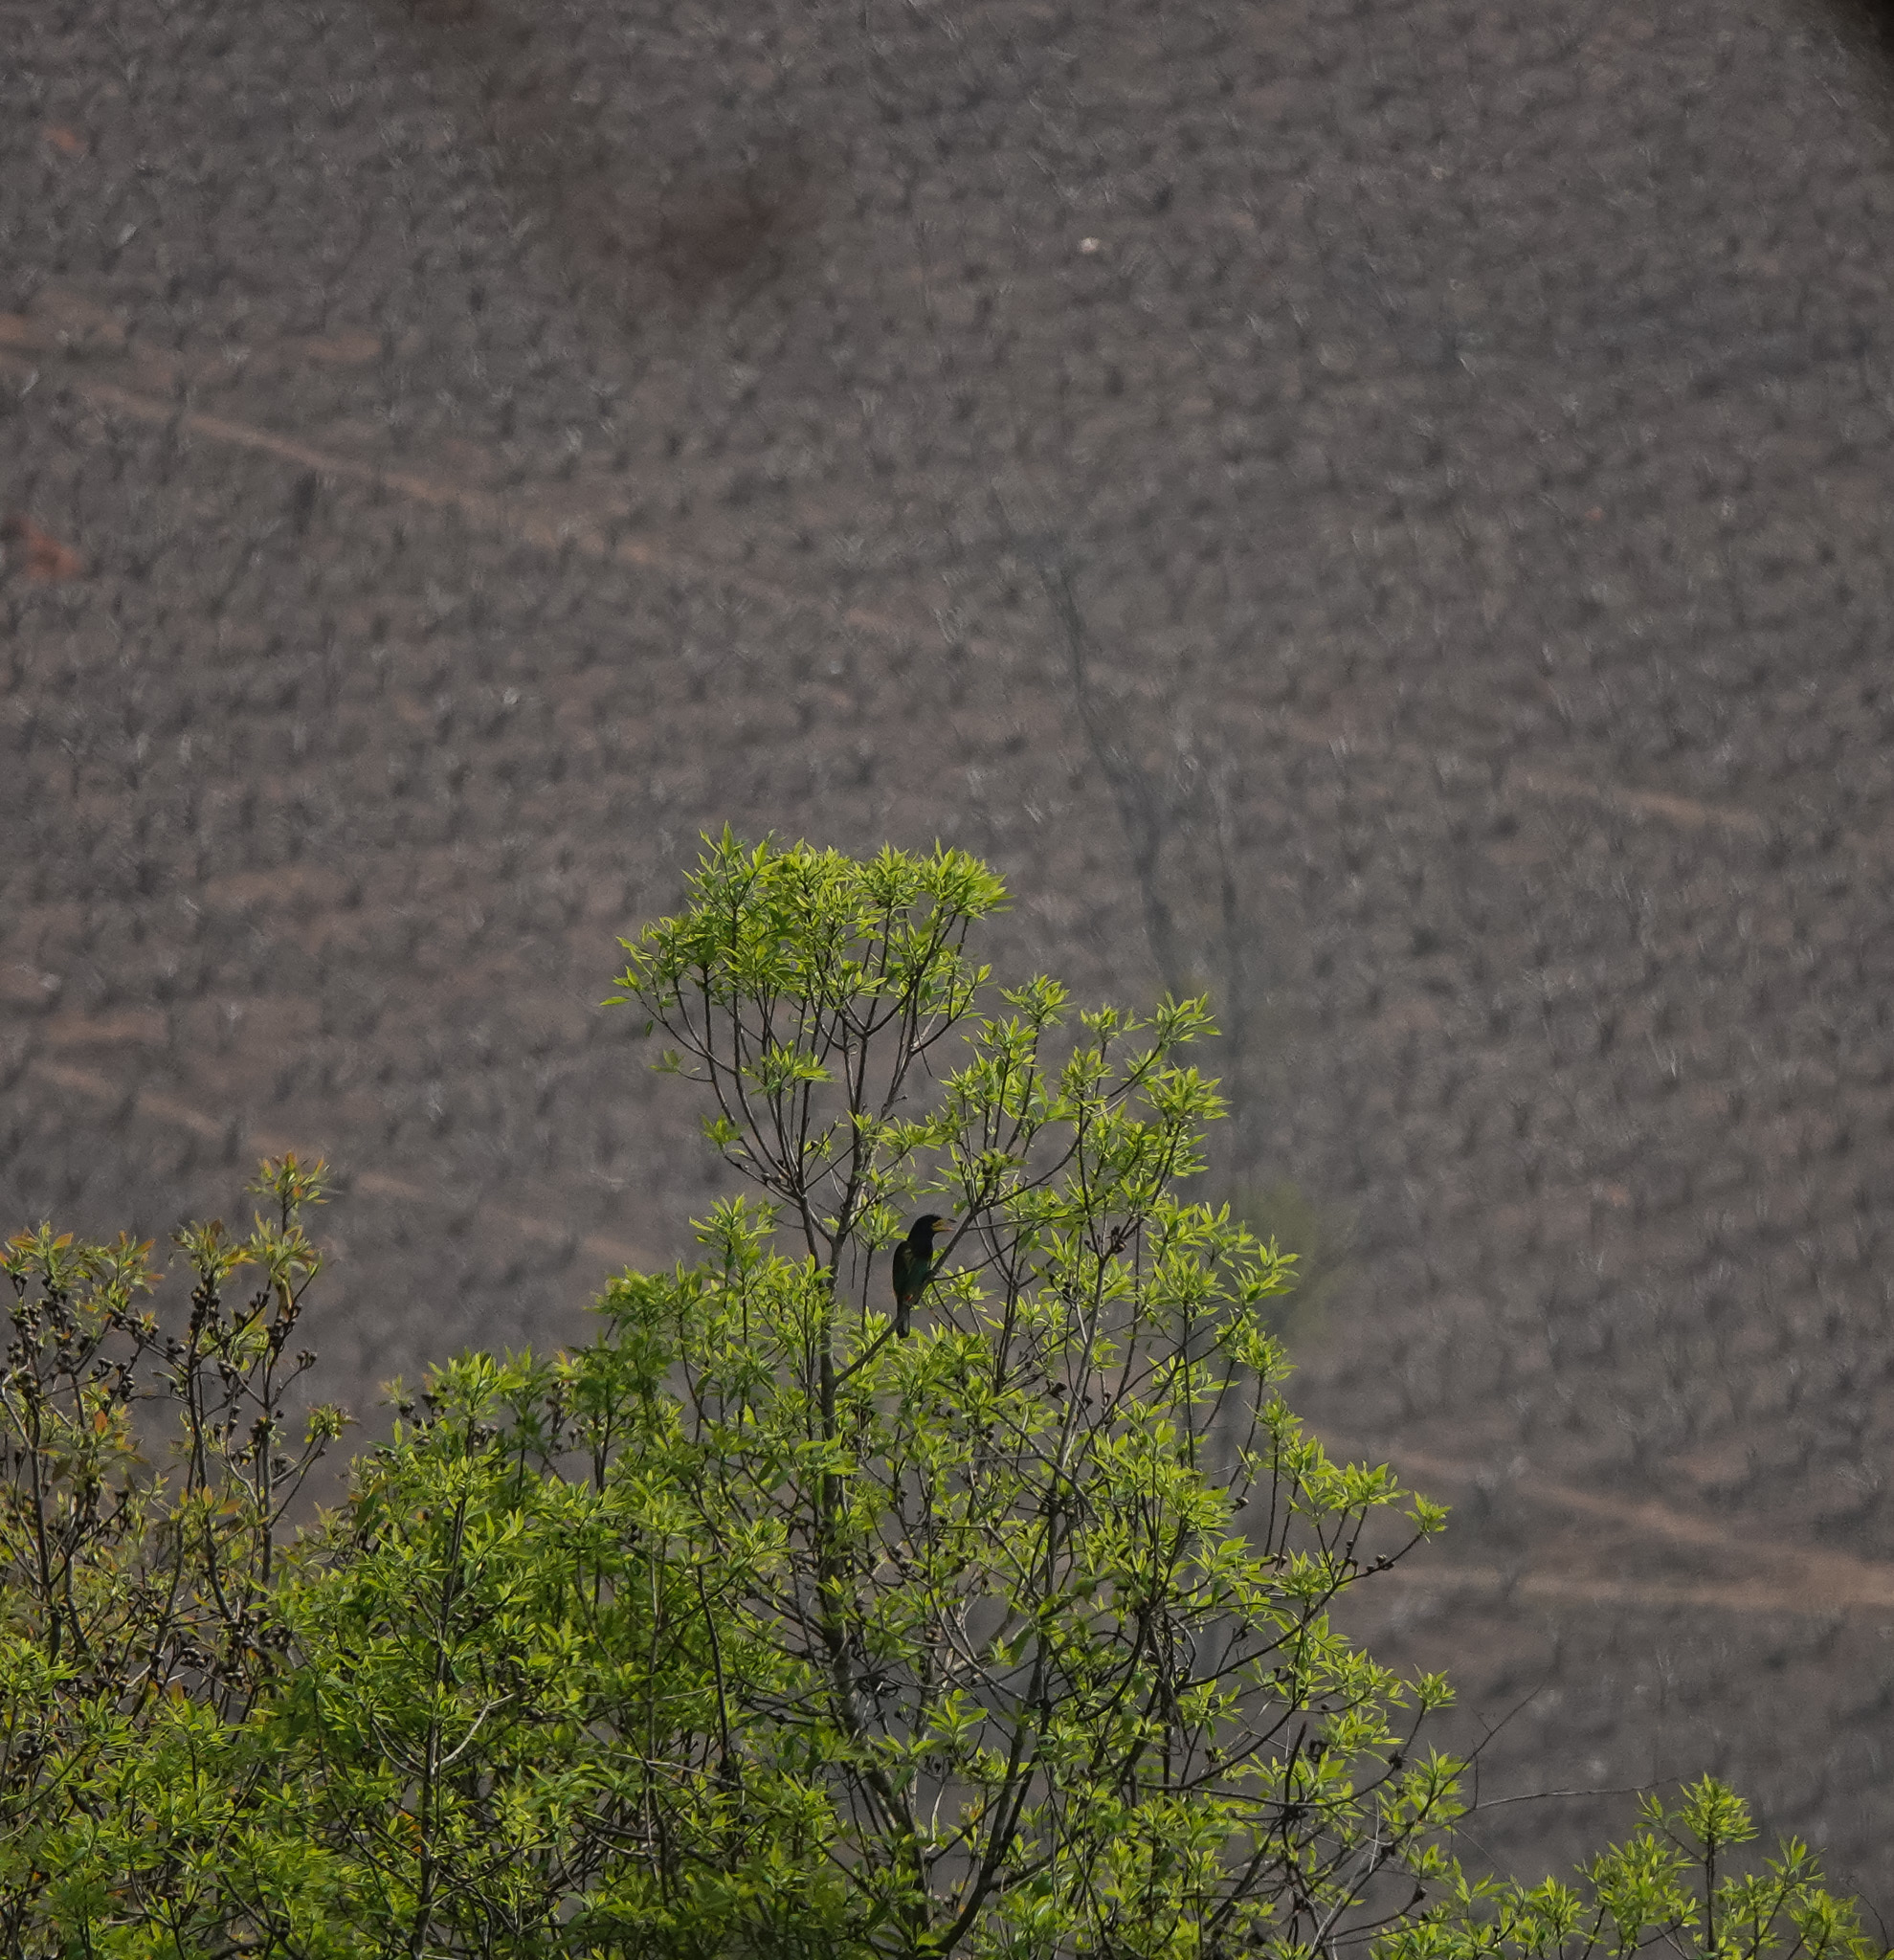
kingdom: Animalia
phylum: Chordata
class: Aves
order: Piciformes
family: Megalaimidae
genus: Psilopogon
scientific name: Psilopogon virens
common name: Great barbet
